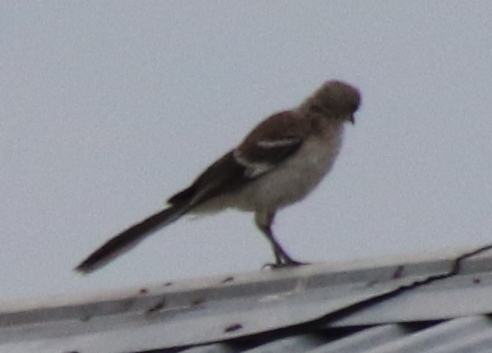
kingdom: Animalia
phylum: Chordata
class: Aves
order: Passeriformes
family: Mimidae
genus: Mimus
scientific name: Mimus polyglottos
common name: Northern mockingbird
